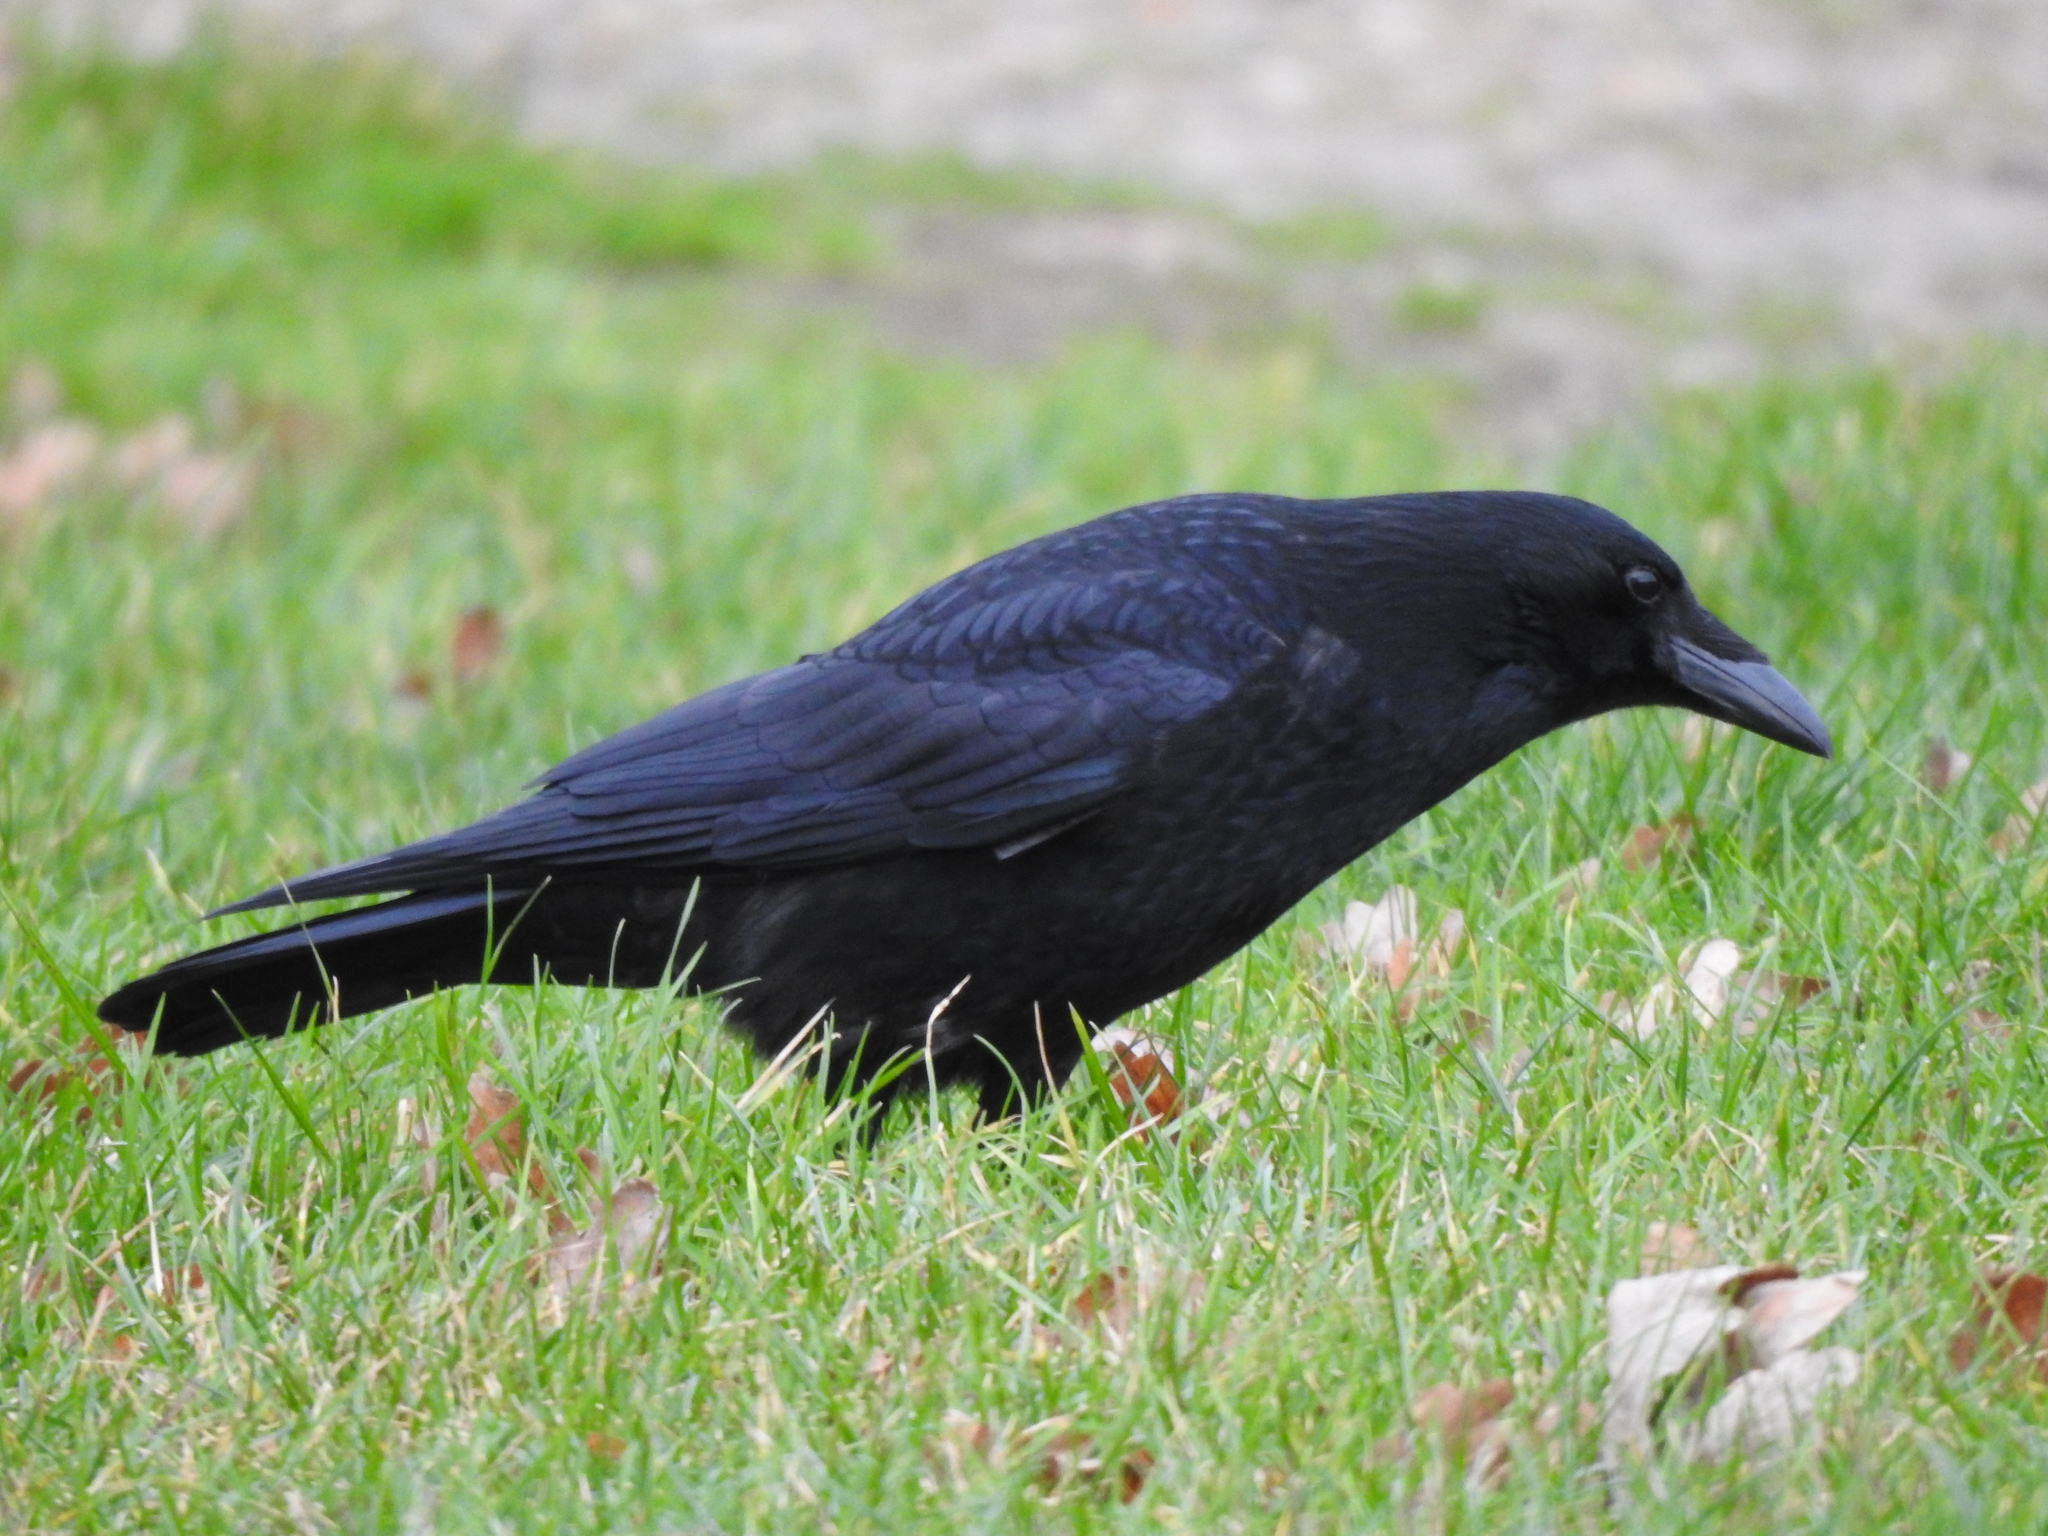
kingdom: Animalia
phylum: Chordata
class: Aves
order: Passeriformes
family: Corvidae
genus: Corvus
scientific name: Corvus corone
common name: Carrion crow
